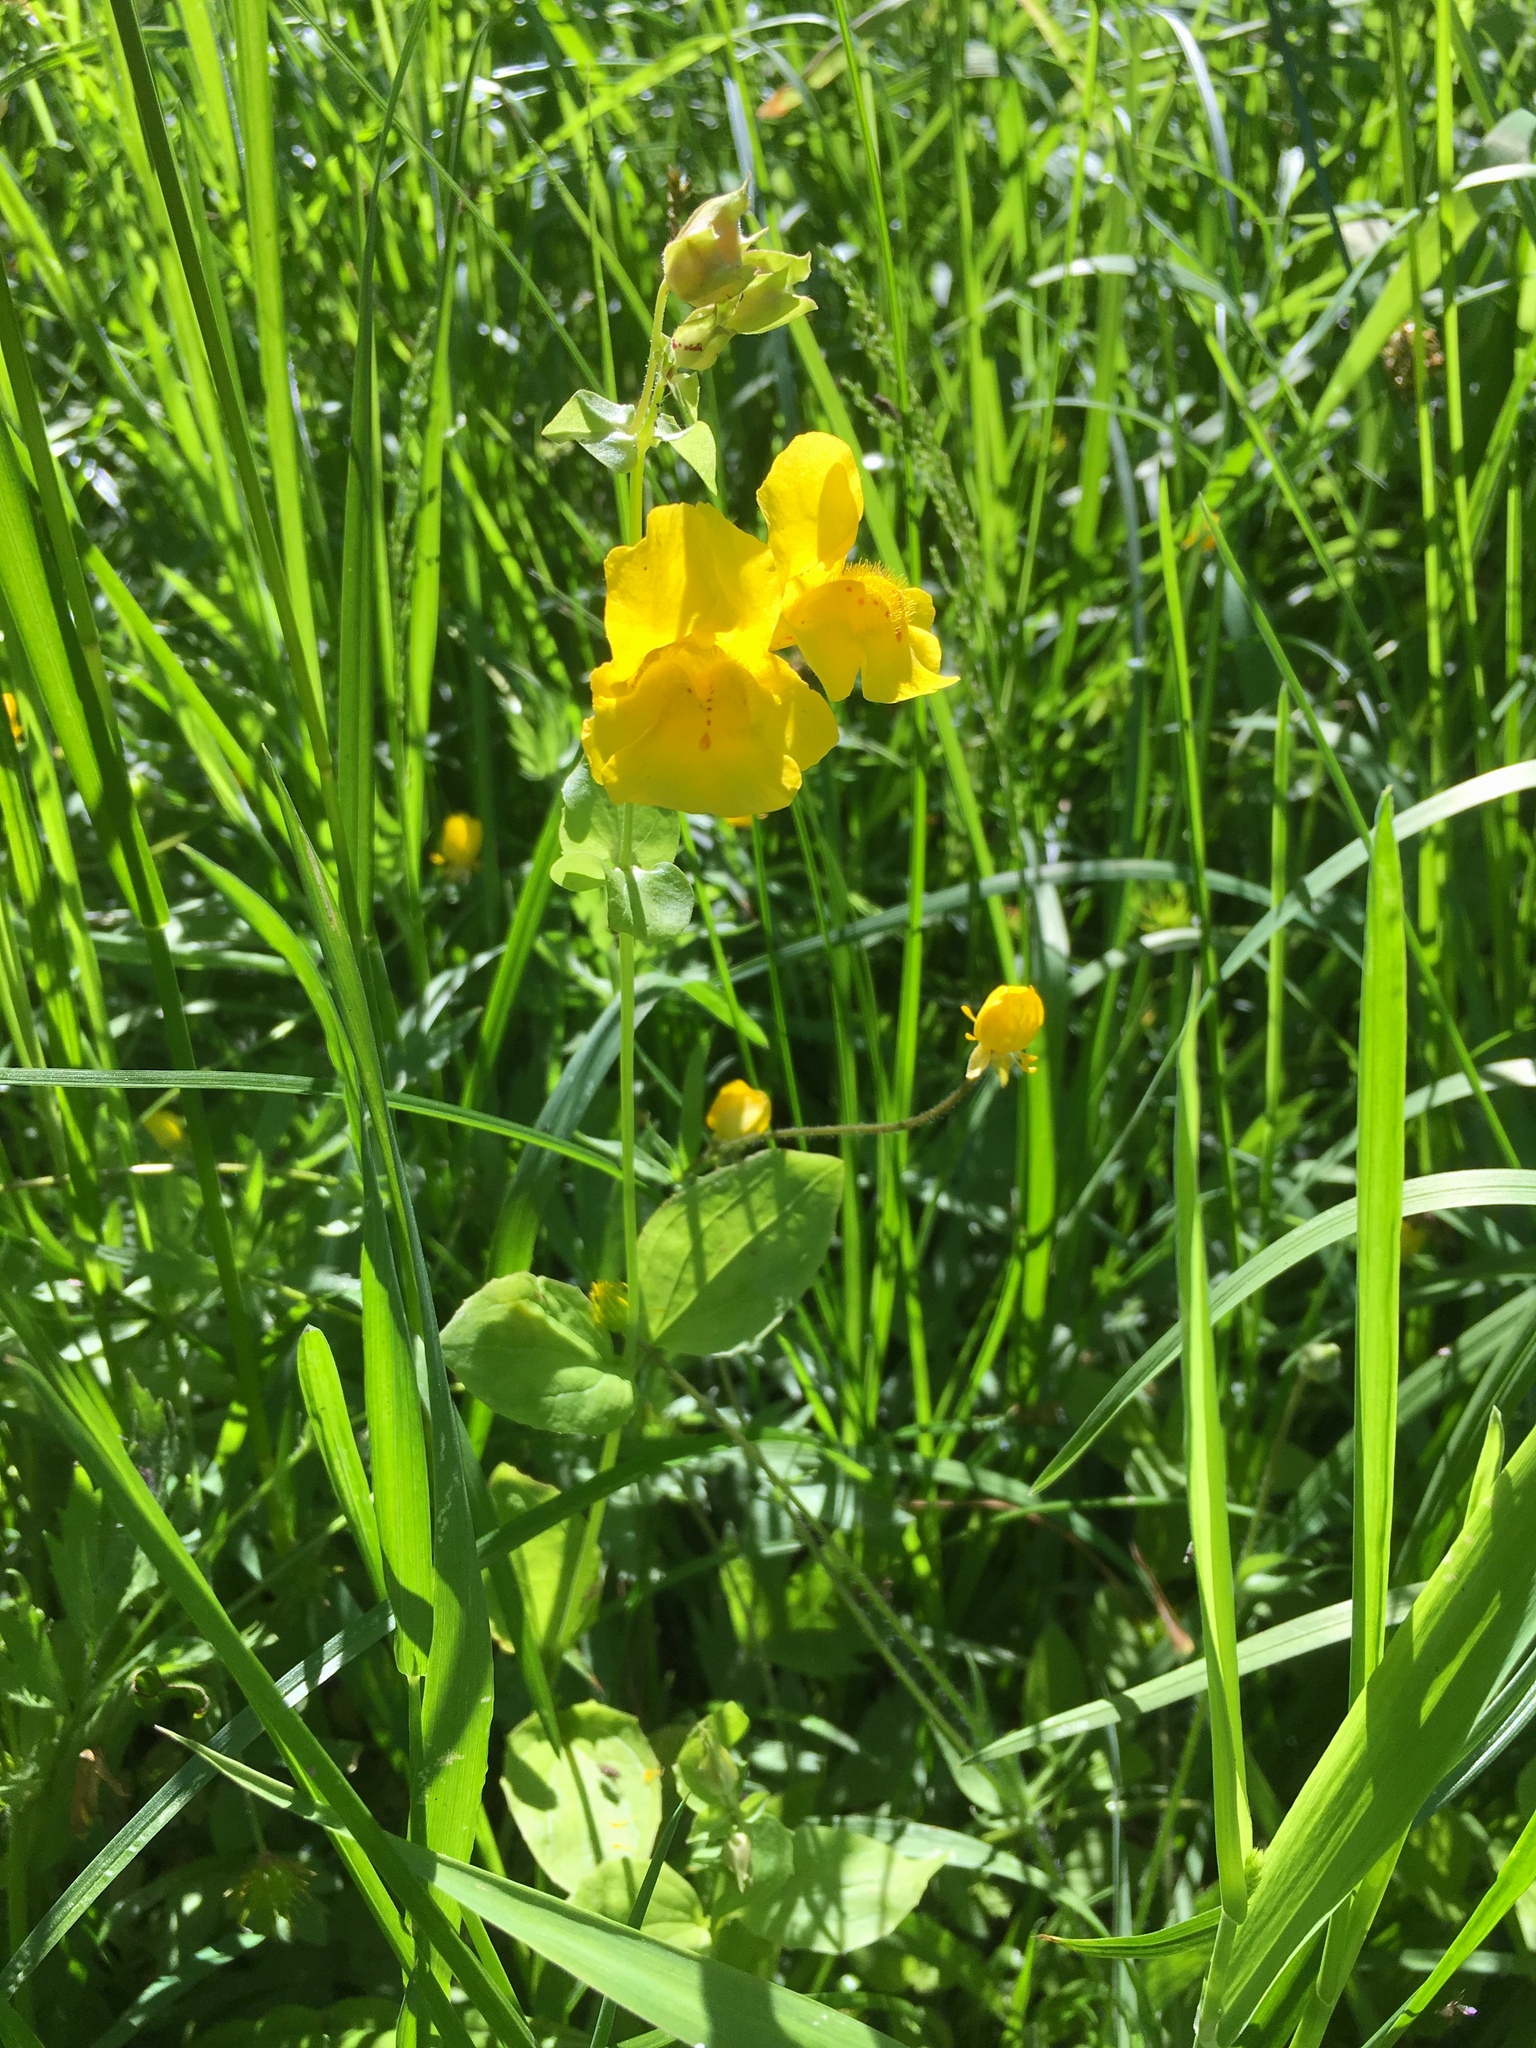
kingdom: Plantae
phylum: Tracheophyta
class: Magnoliopsida
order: Lamiales
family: Phrymaceae
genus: Erythranthe
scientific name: Erythranthe guttata
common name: Monkeyflower
